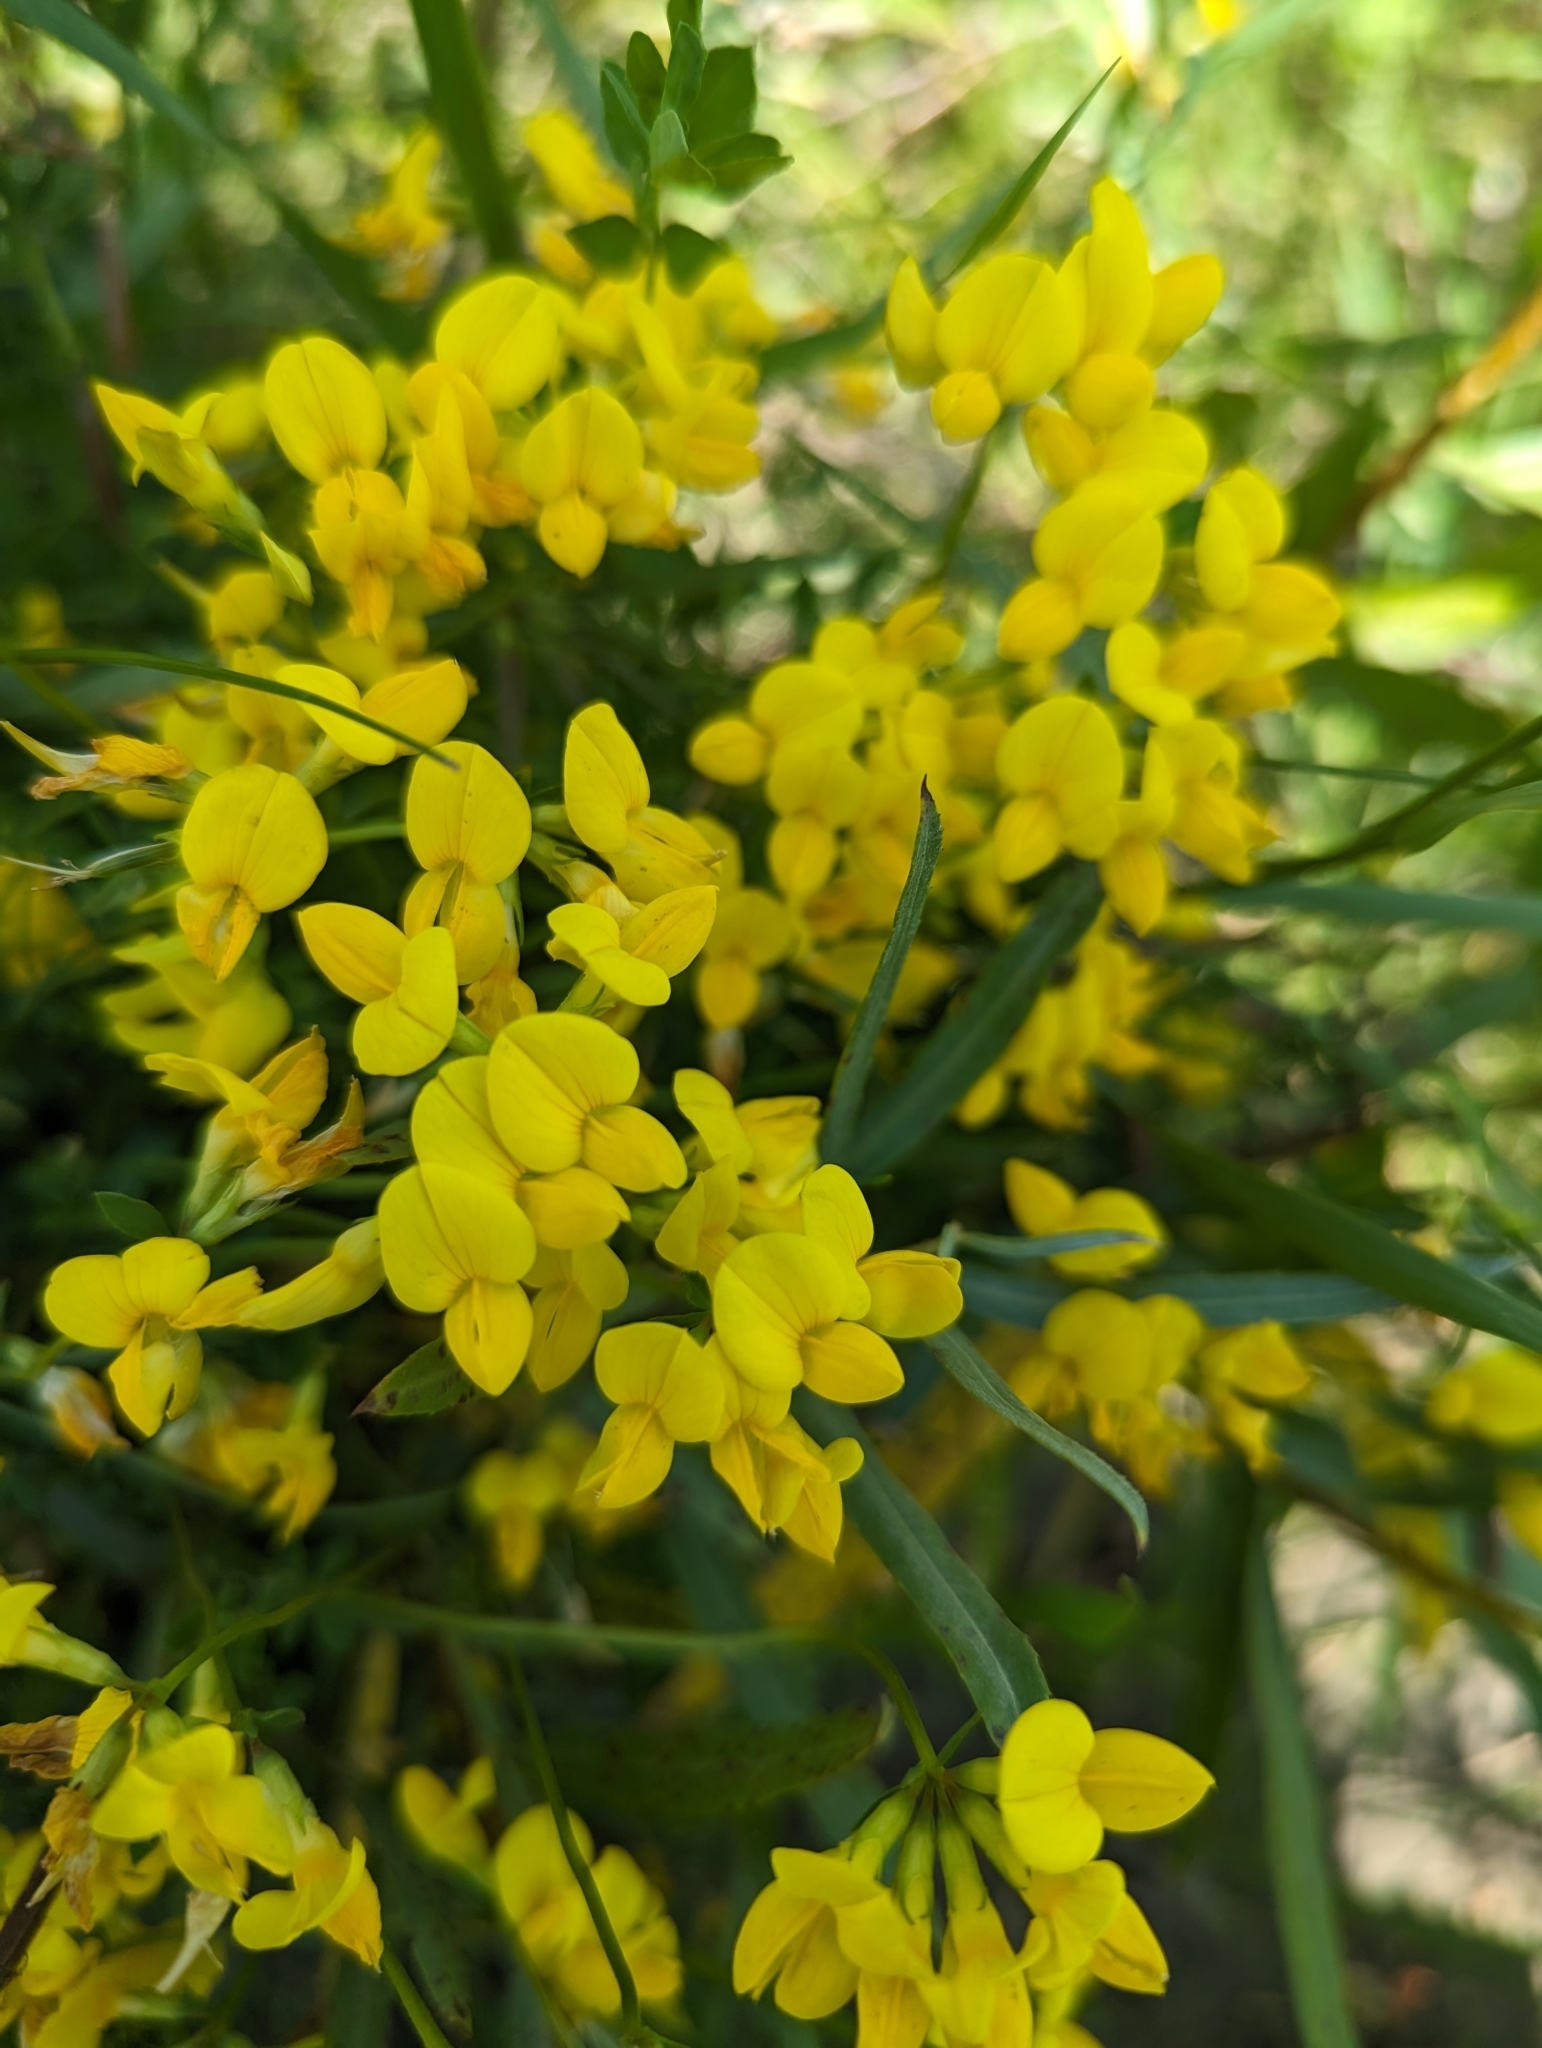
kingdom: Plantae
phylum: Tracheophyta
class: Magnoliopsida
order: Fabales
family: Fabaceae
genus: Lotus
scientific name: Lotus corniculatus
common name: Common bird's-foot-trefoil
